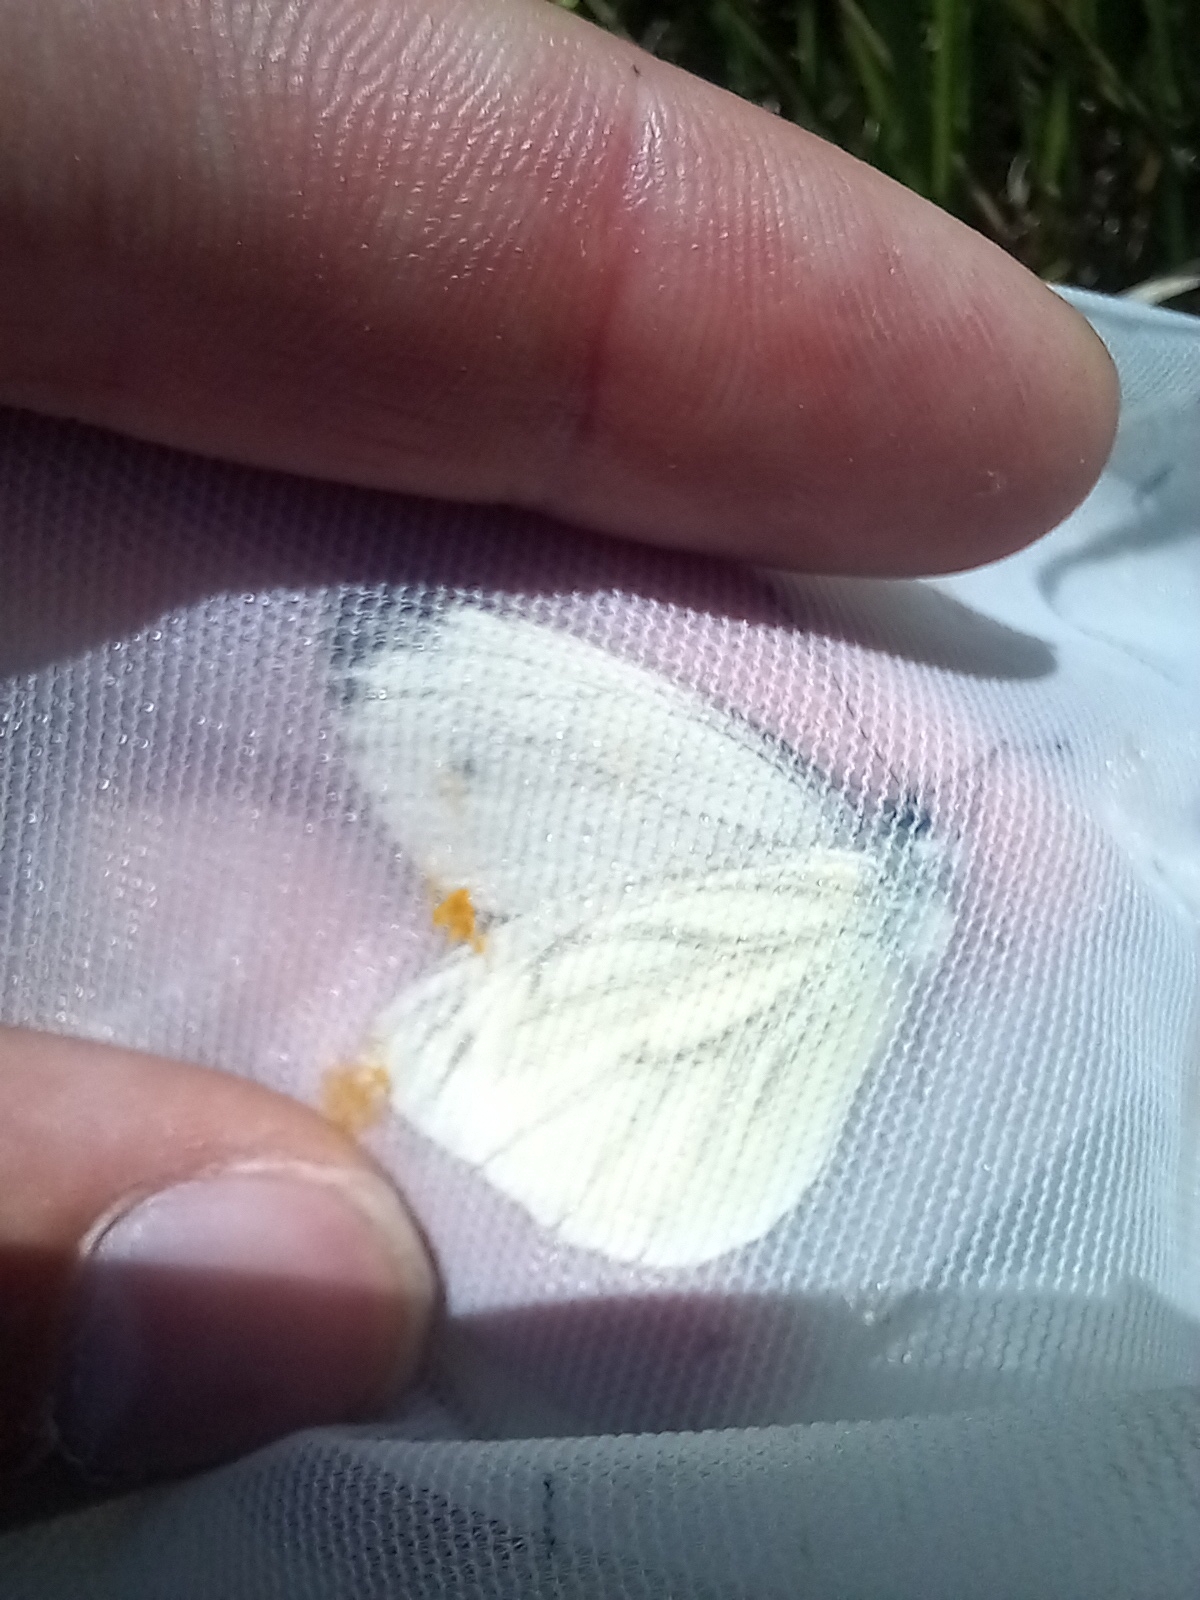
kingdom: Animalia
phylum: Arthropoda
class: Insecta
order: Lepidoptera
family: Pieridae
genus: Pieris
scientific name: Pieris napi
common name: Green-veined white
